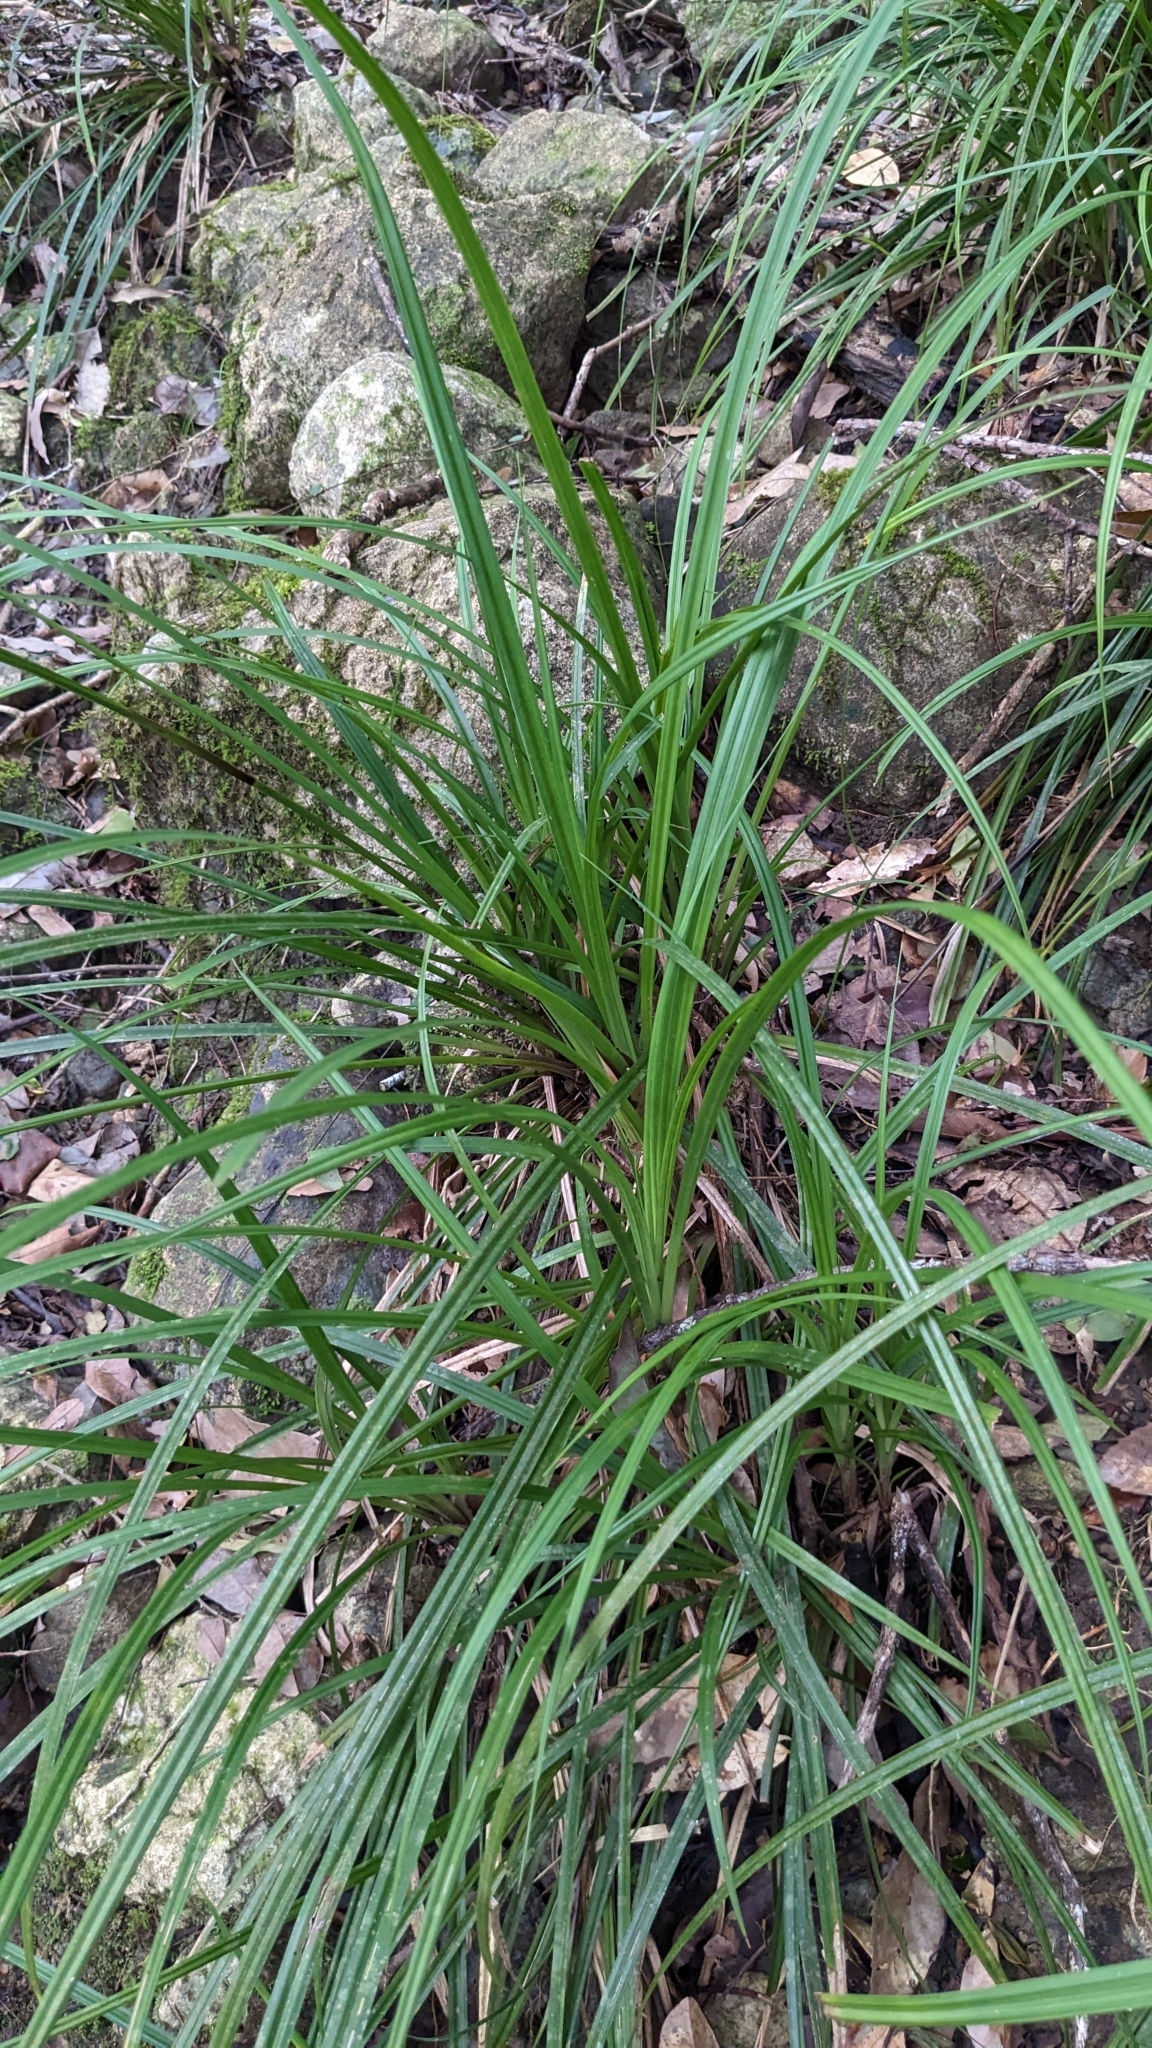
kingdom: Plantae
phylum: Tracheophyta
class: Liliopsida
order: Poales
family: Cyperaceae
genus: Carex
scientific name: Carex morii
